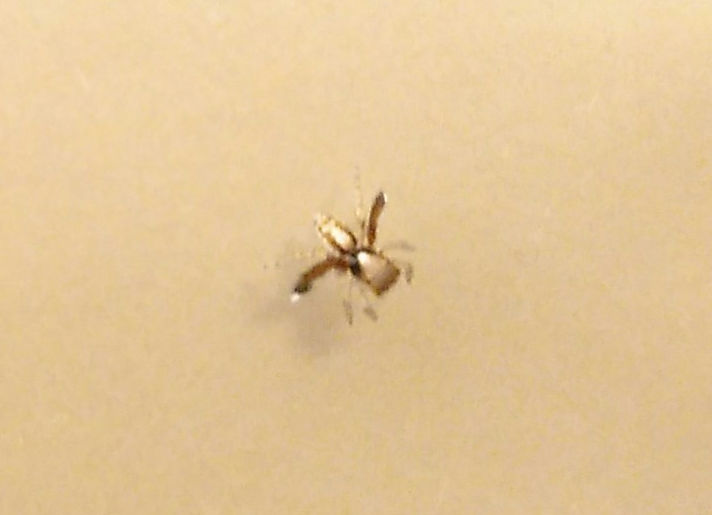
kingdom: Animalia
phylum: Arthropoda
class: Arachnida
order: Araneae
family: Salticidae
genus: Saitis
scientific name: Saitis barbipes
